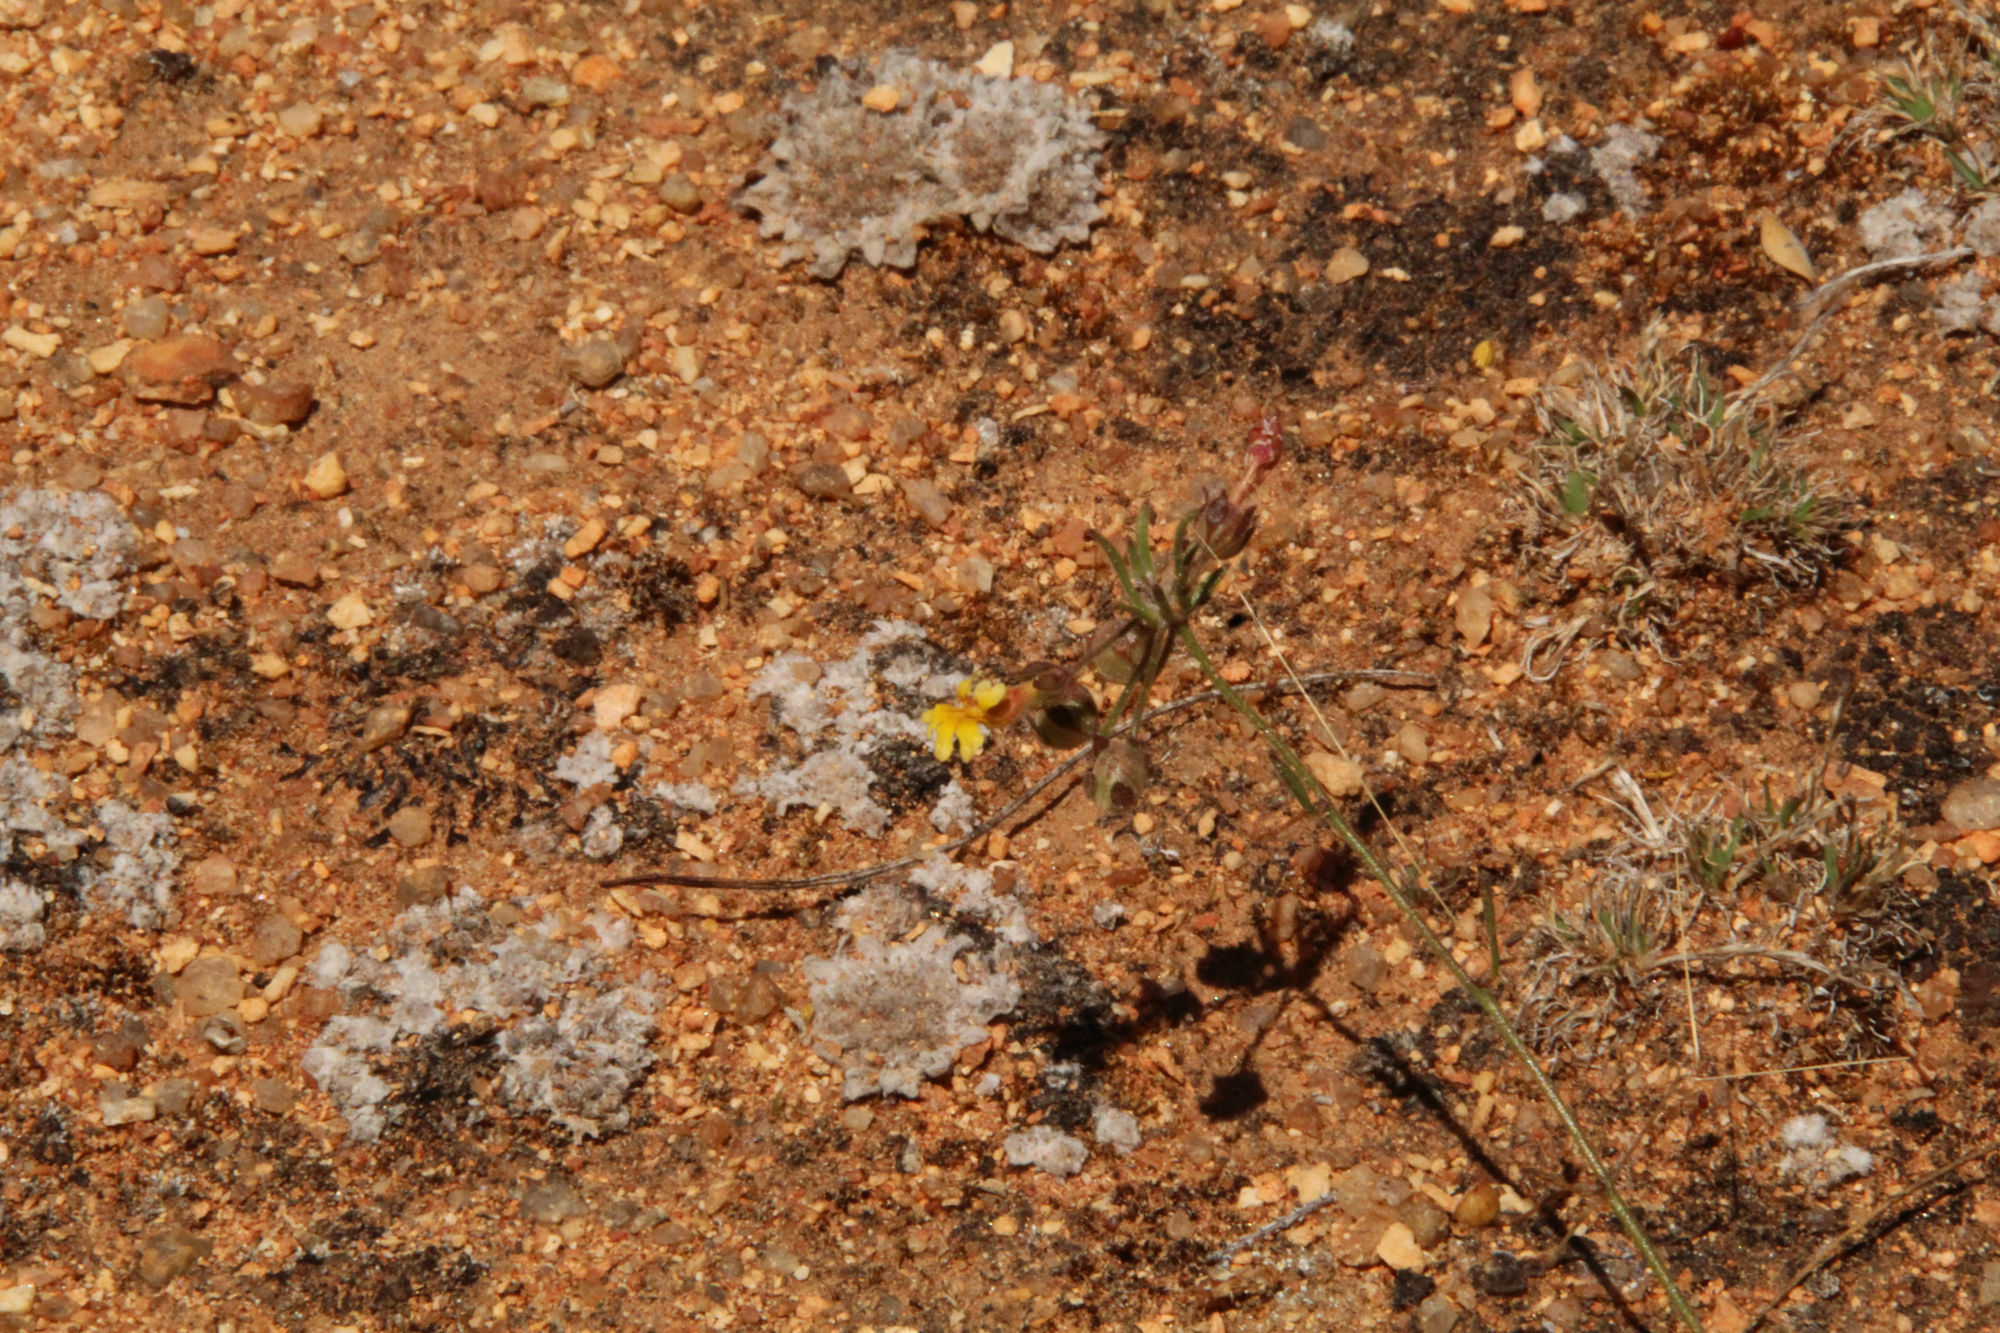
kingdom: Plantae
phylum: Tracheophyta
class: Magnoliopsida
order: Asterales
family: Goodeniaceae
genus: Goodenia
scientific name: Goodenia berardiana
